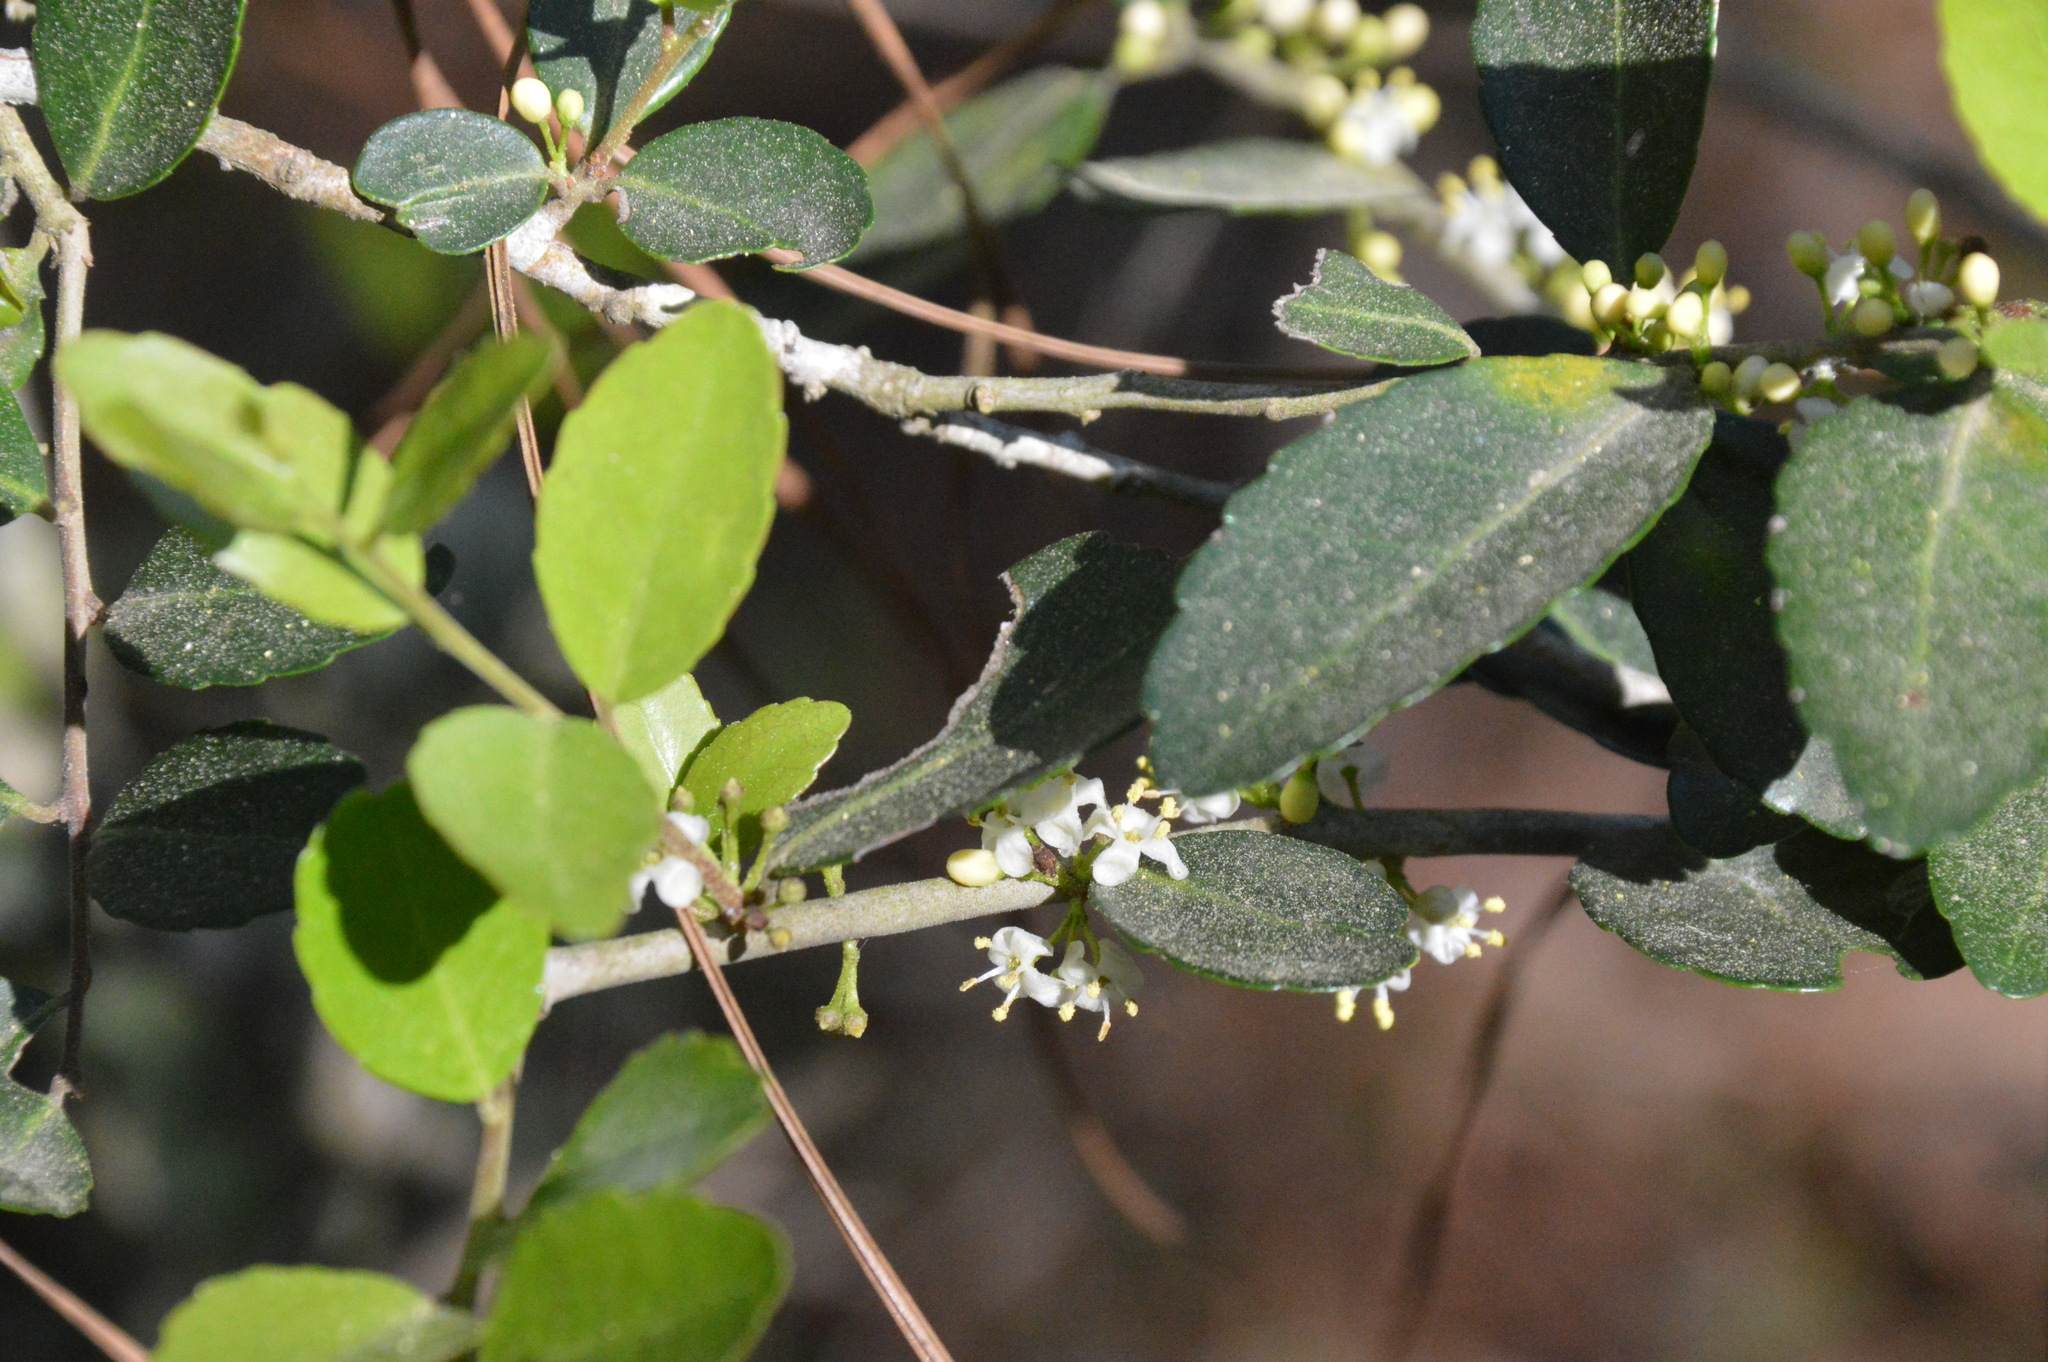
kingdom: Plantae
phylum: Tracheophyta
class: Magnoliopsida
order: Aquifoliales
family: Aquifoliaceae
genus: Ilex
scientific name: Ilex vomitoria
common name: Yaupon holly
